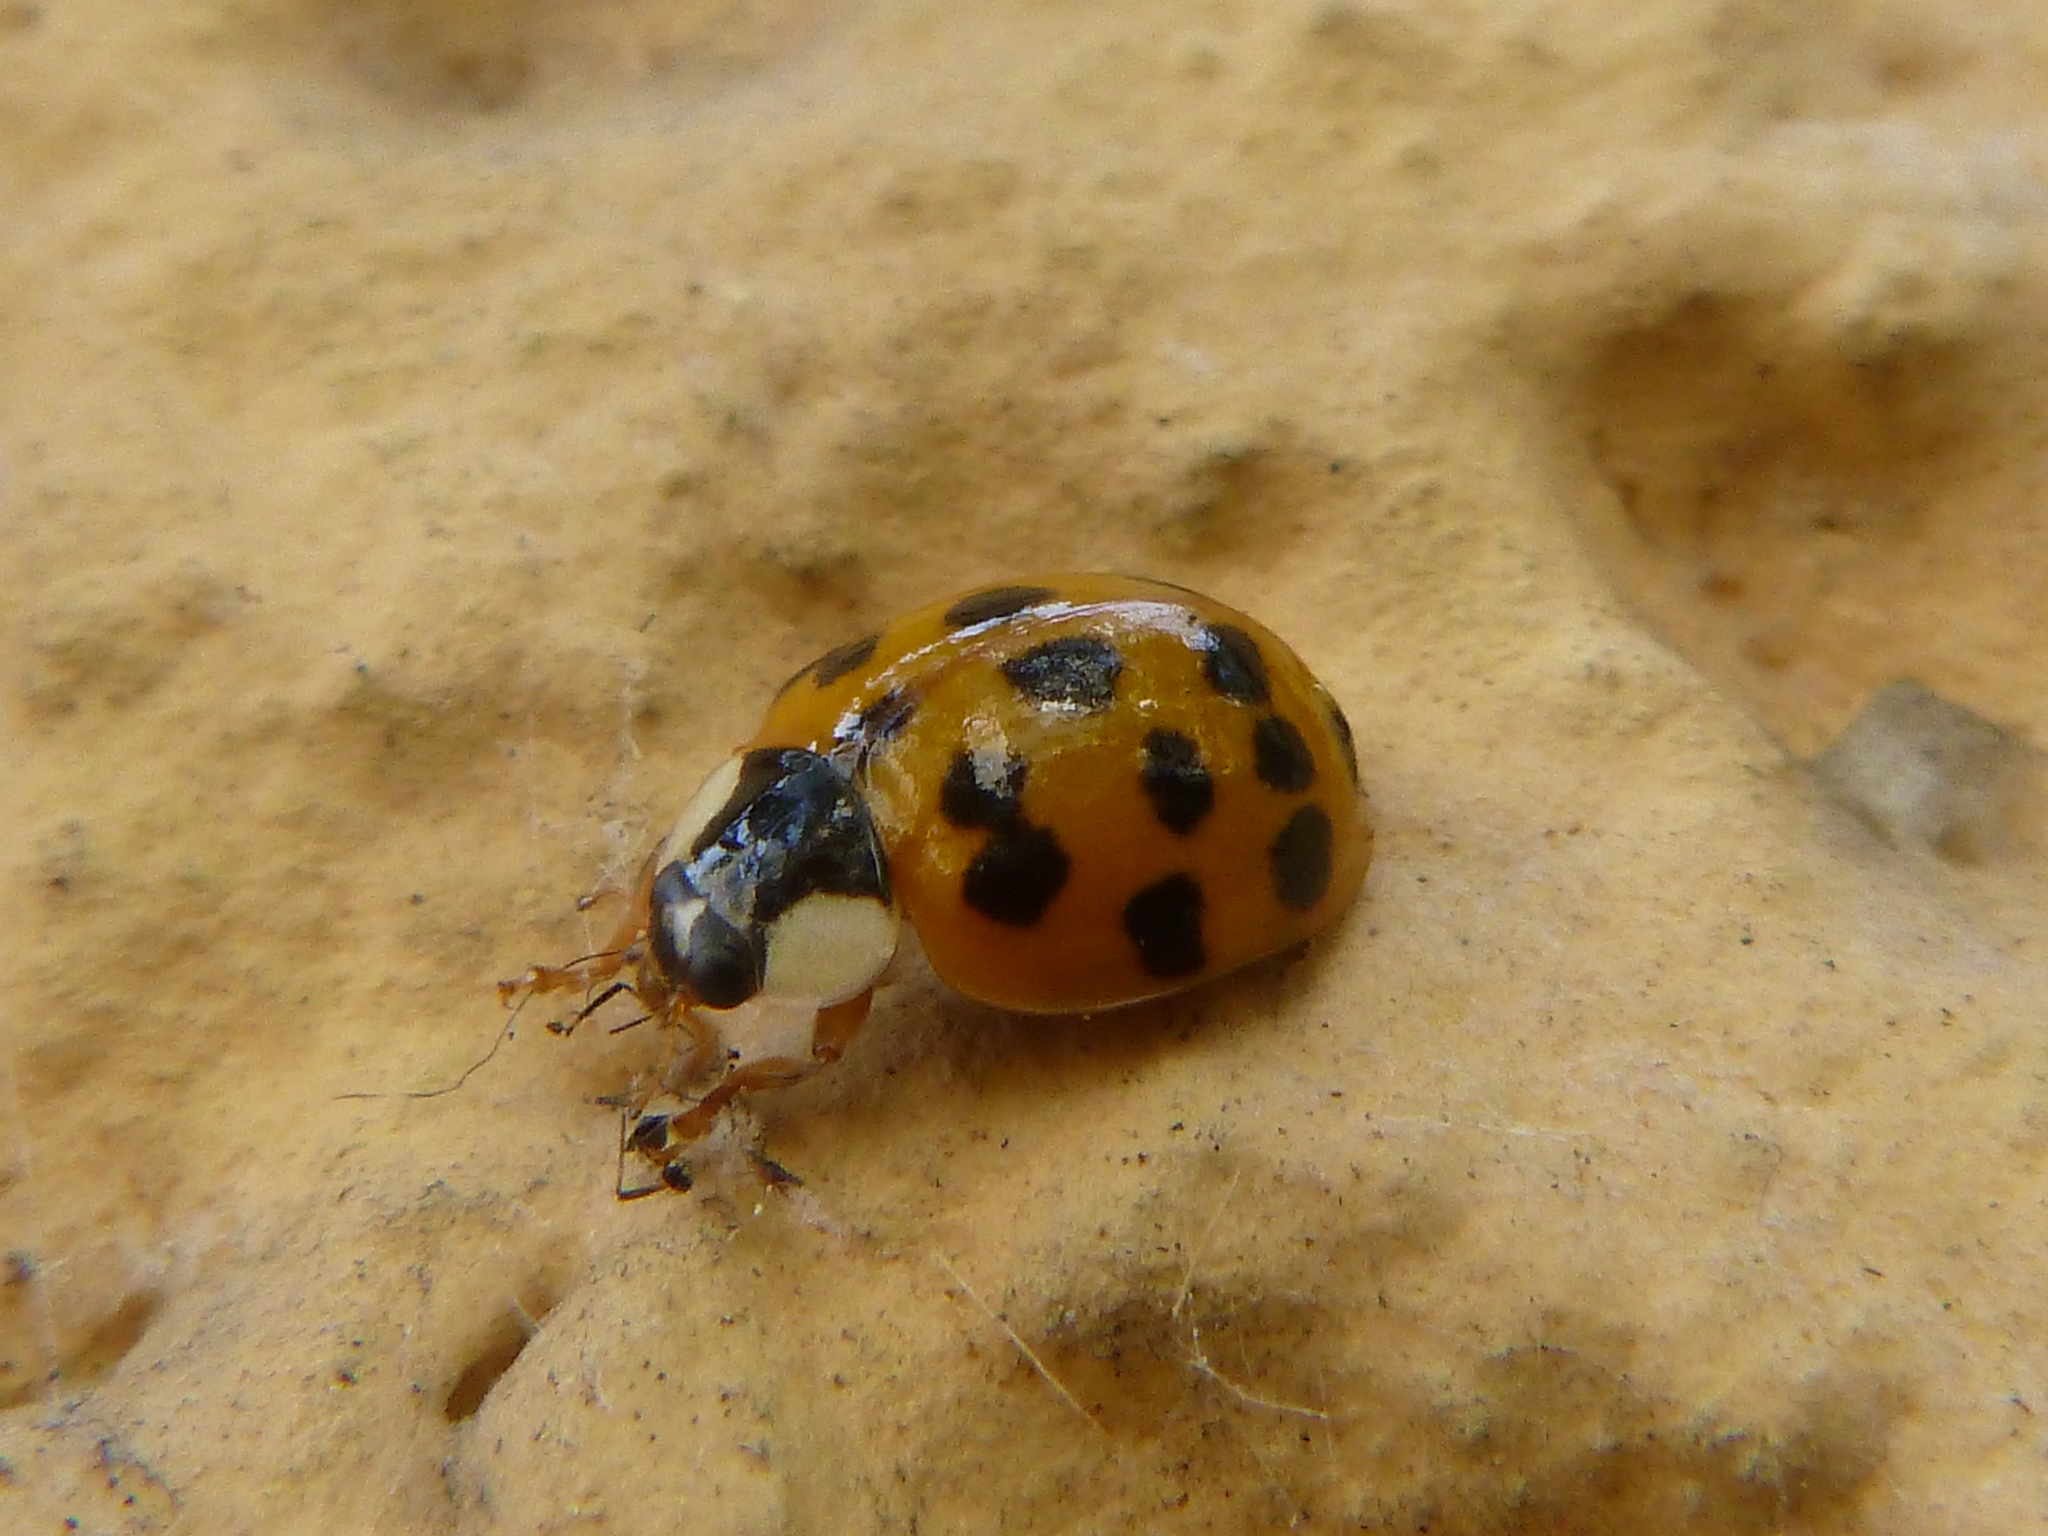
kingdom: Animalia
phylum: Arthropoda
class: Insecta
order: Coleoptera
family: Coccinellidae
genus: Harmonia
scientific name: Harmonia axyridis
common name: Harlequin ladybird
